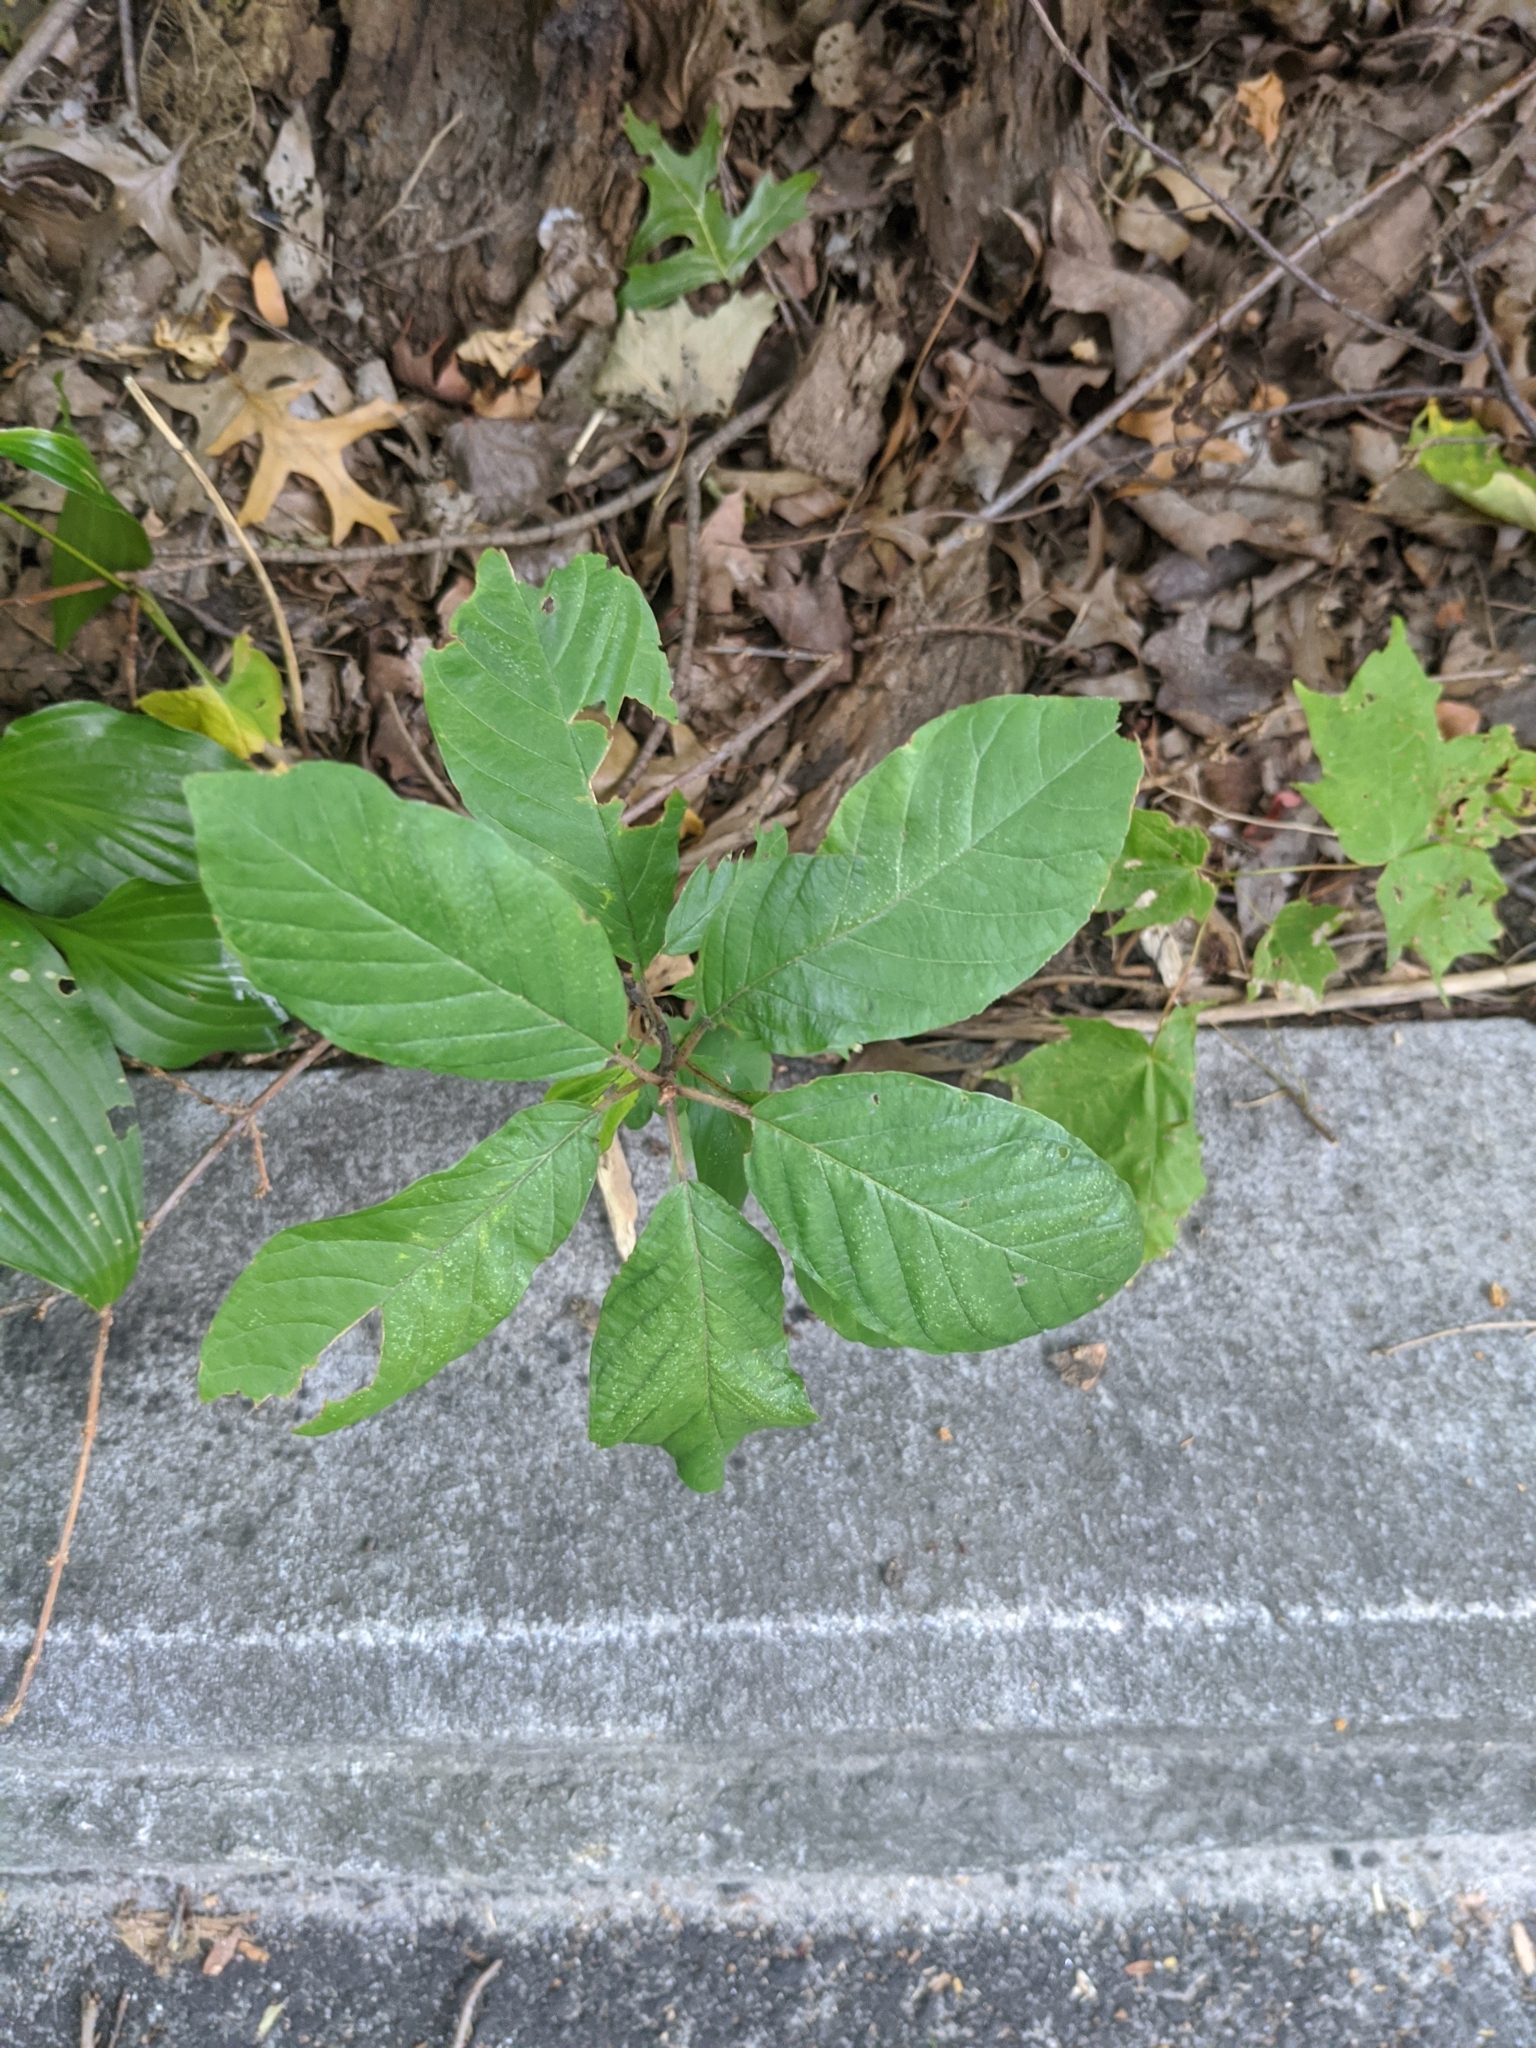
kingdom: Plantae
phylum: Tracheophyta
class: Magnoliopsida
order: Rosales
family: Rhamnaceae
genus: Frangula
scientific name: Frangula alnus
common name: Alder buckthorn
